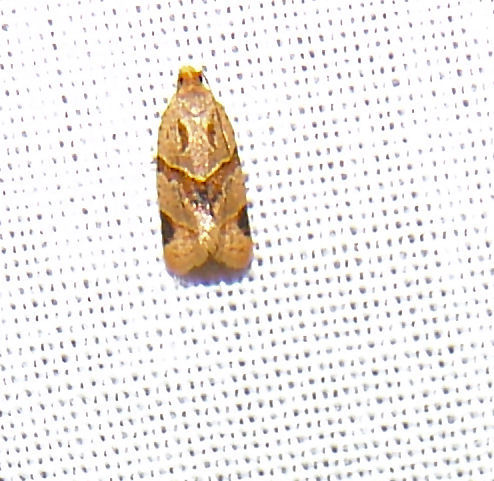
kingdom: Animalia
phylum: Arthropoda
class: Insecta
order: Lepidoptera
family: Tortricidae
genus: Clepsis
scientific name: Clepsis peritana
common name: Garden tortrix
